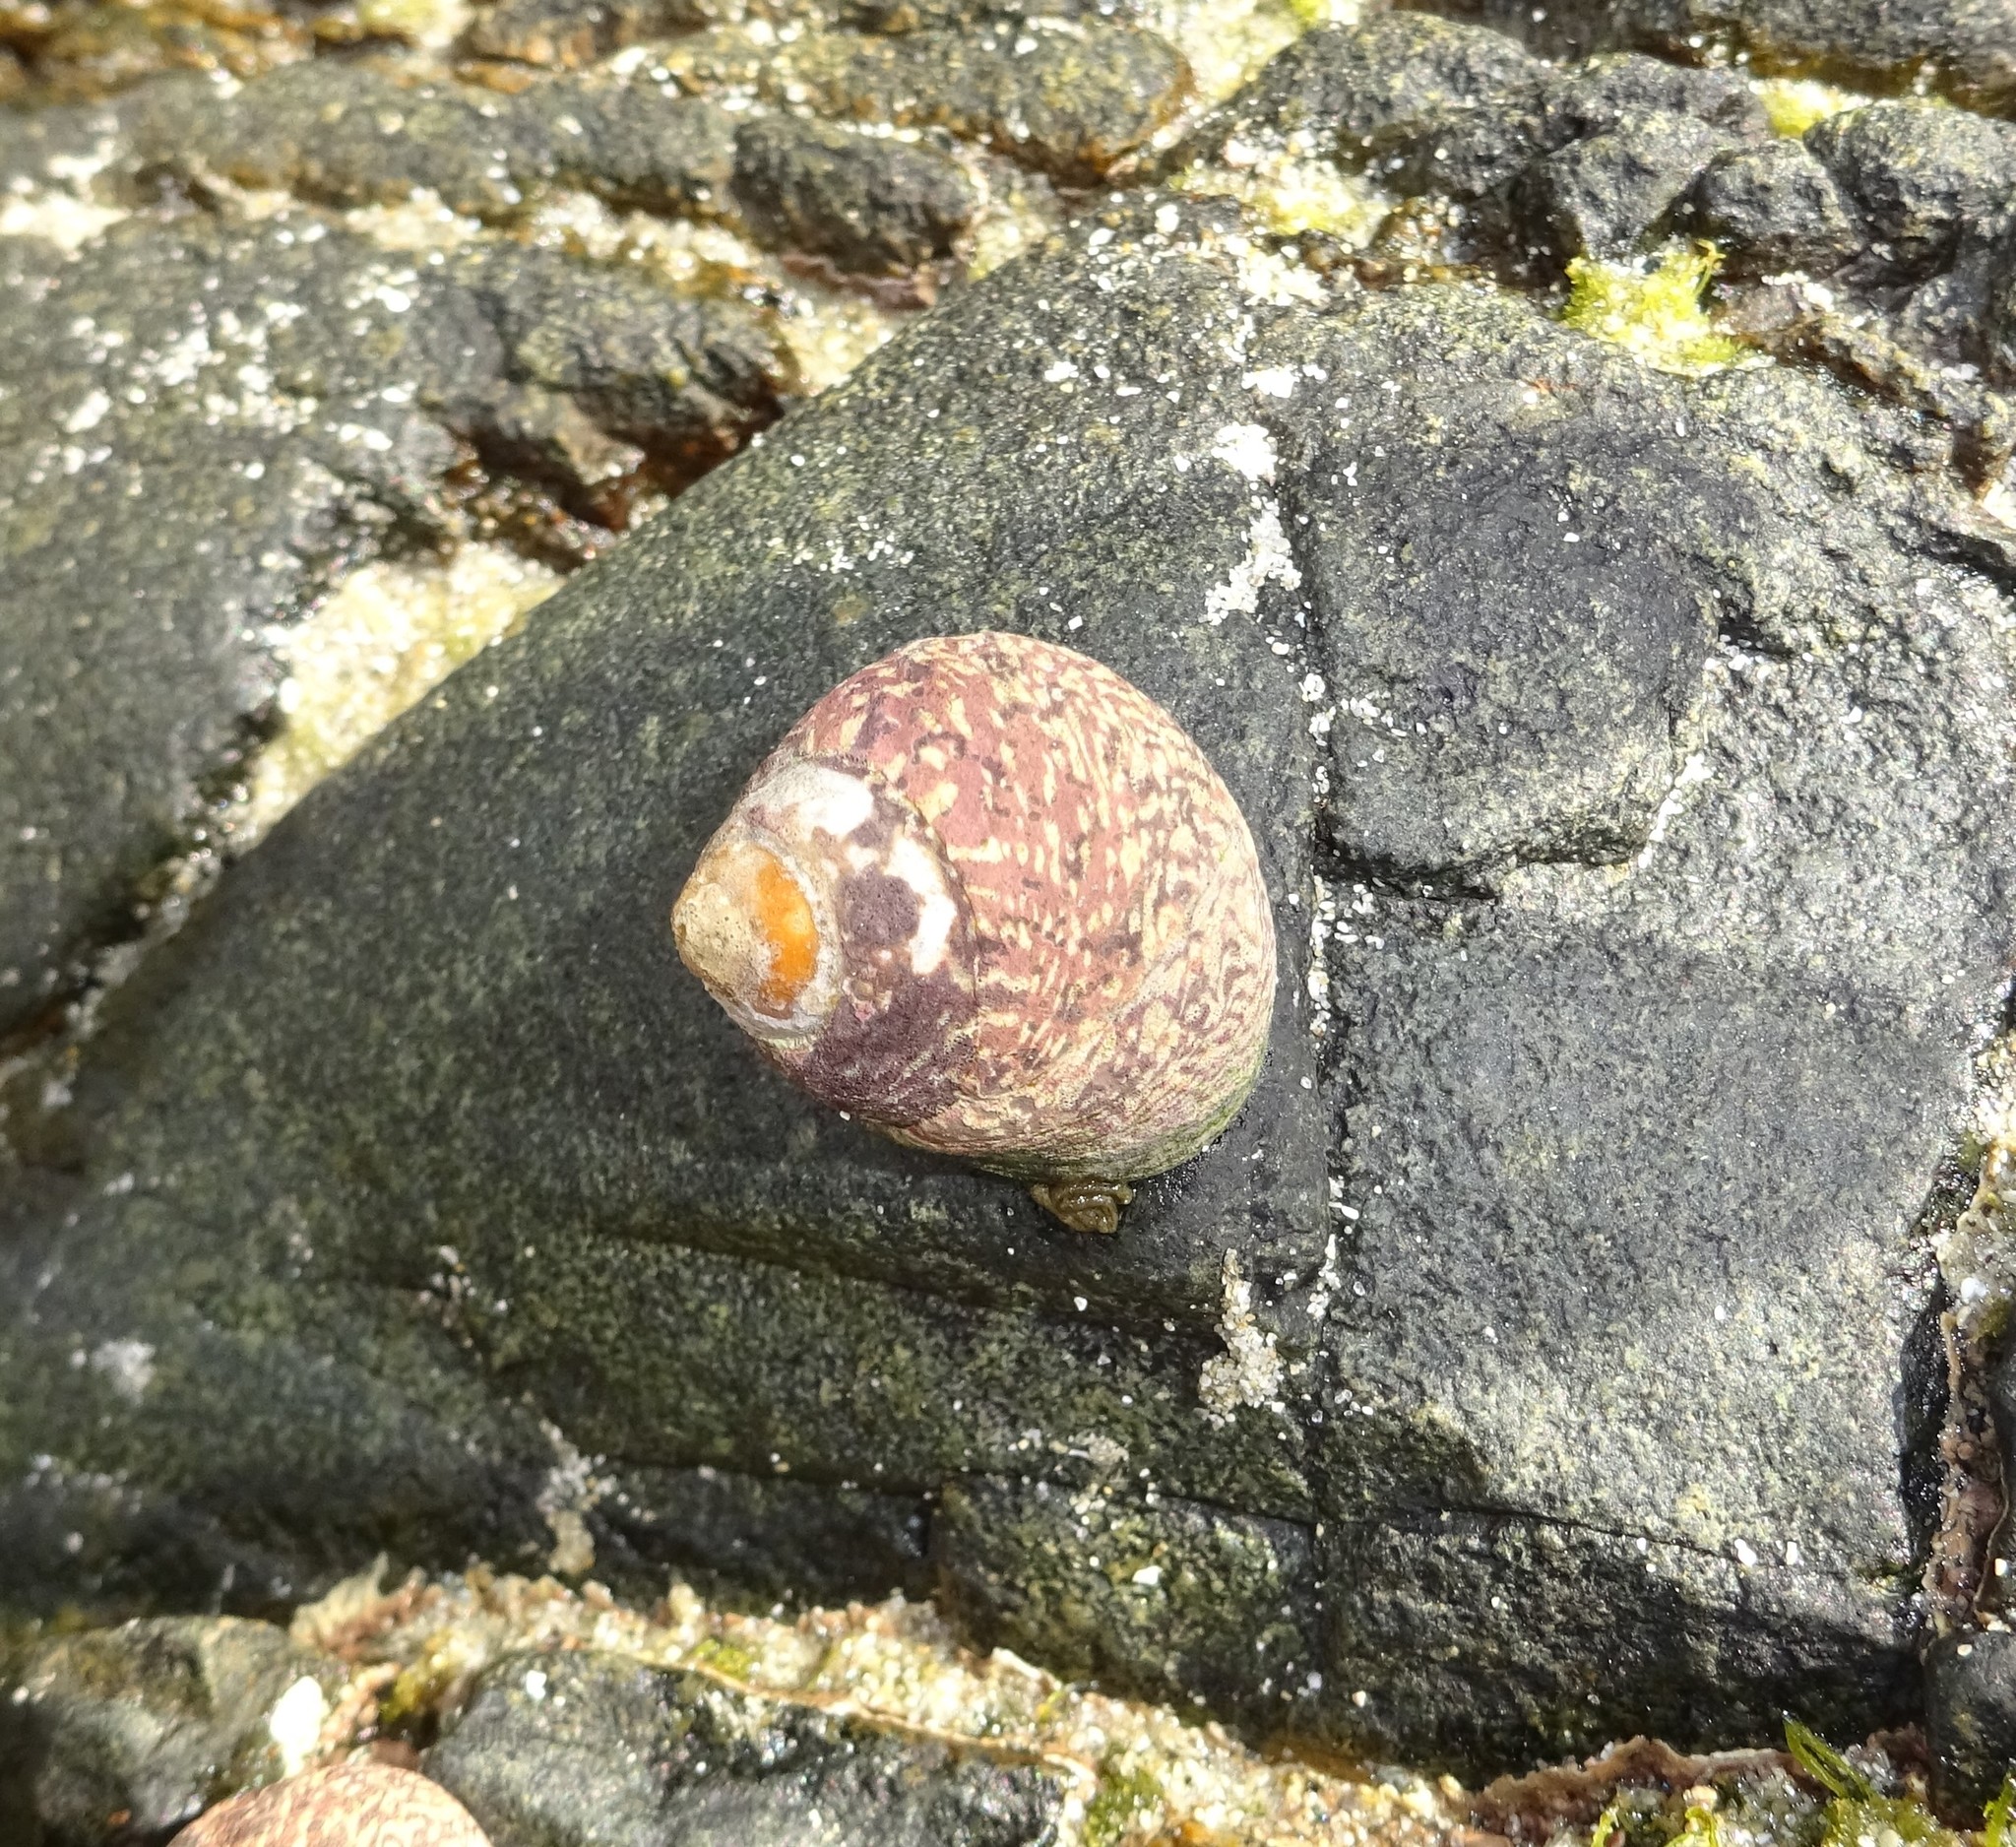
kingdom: Animalia
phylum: Mollusca
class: Gastropoda
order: Trochida
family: Trochidae
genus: Phorcus
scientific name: Phorcus lineatus
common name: Toothed top shell
